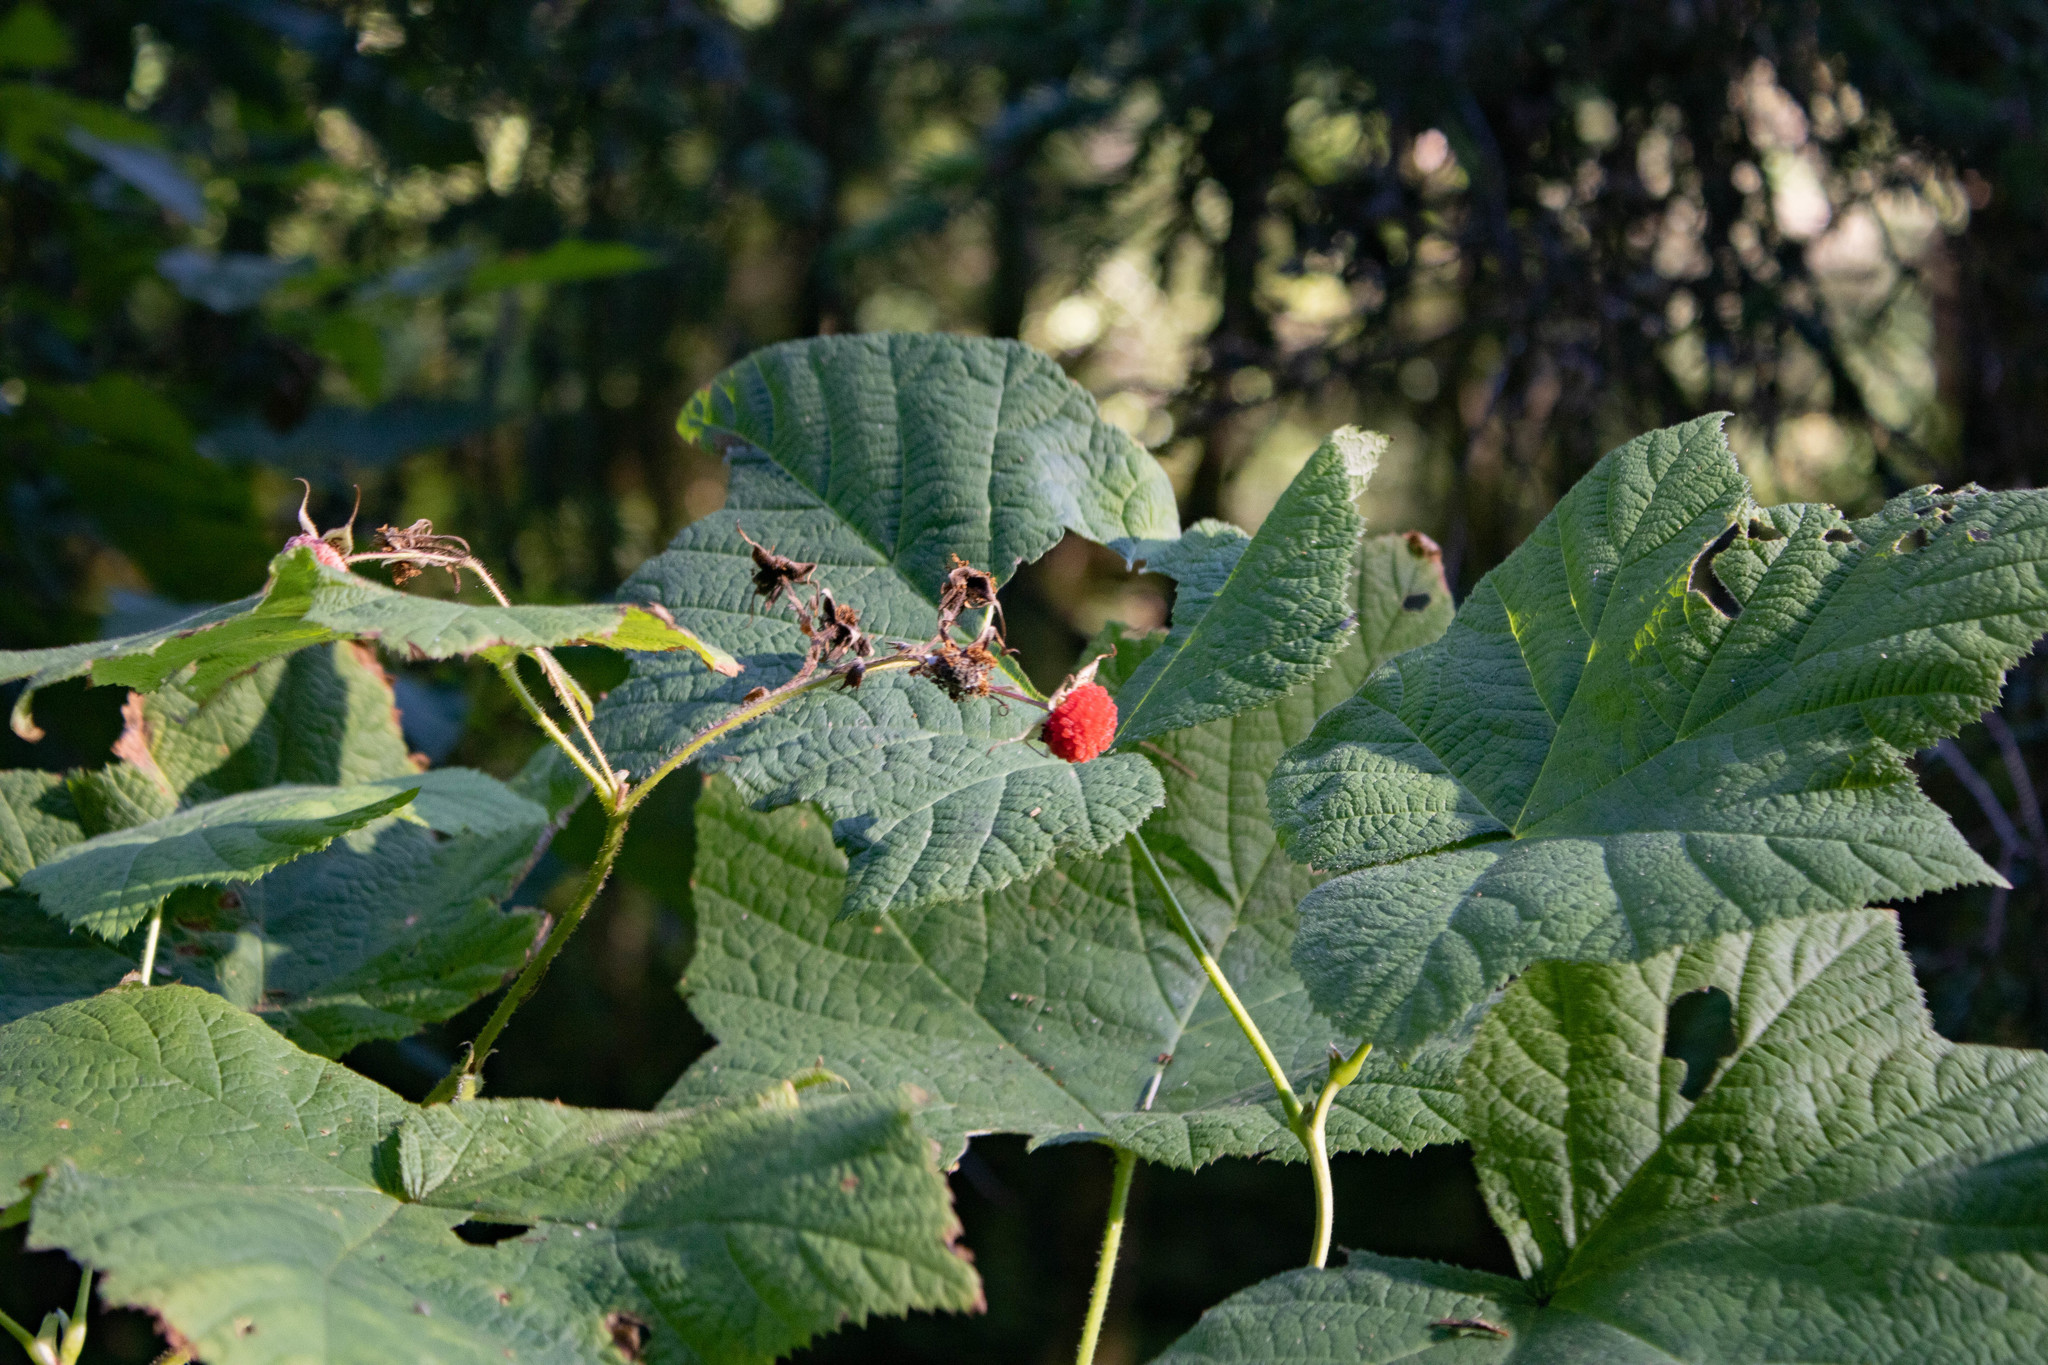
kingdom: Plantae
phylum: Tracheophyta
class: Magnoliopsida
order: Rosales
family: Rosaceae
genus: Rubus
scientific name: Rubus parviflorus
